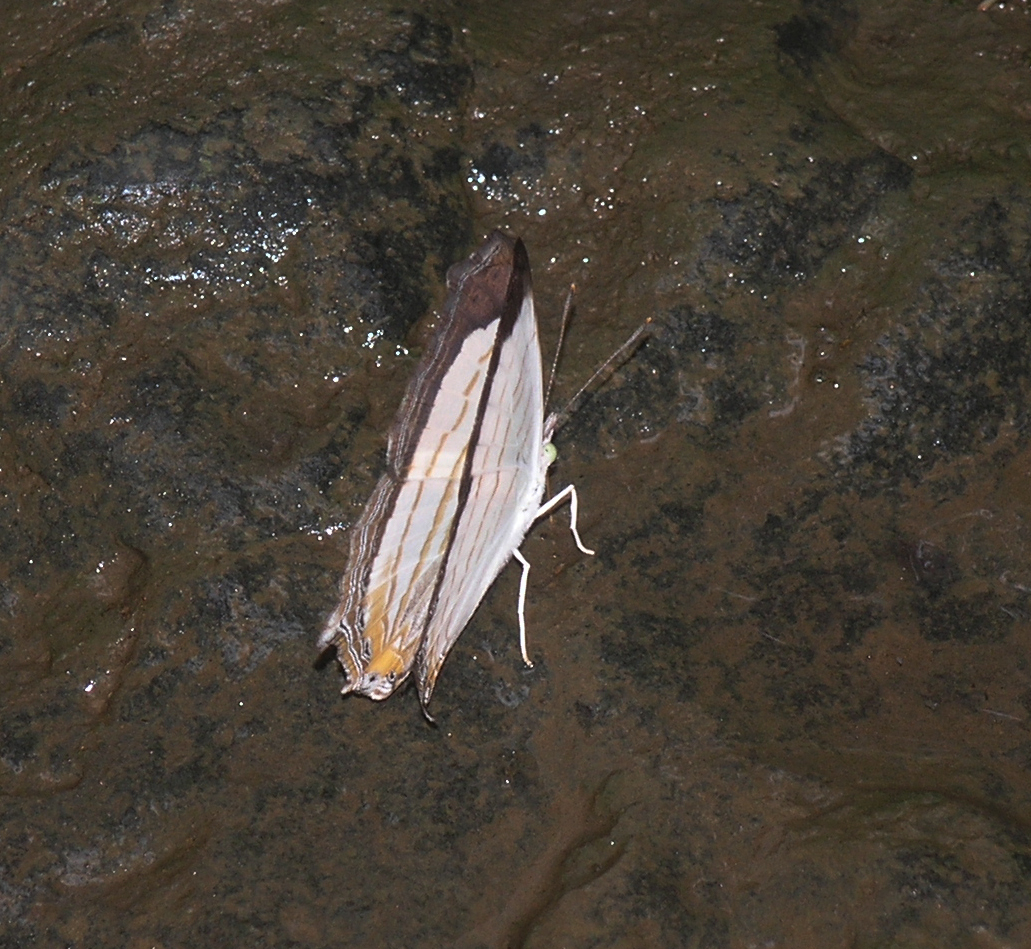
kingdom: Animalia
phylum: Arthropoda
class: Insecta
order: Lepidoptera
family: Nymphalidae
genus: Cyrestis
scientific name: Cyrestis themire
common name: Little mapwing
